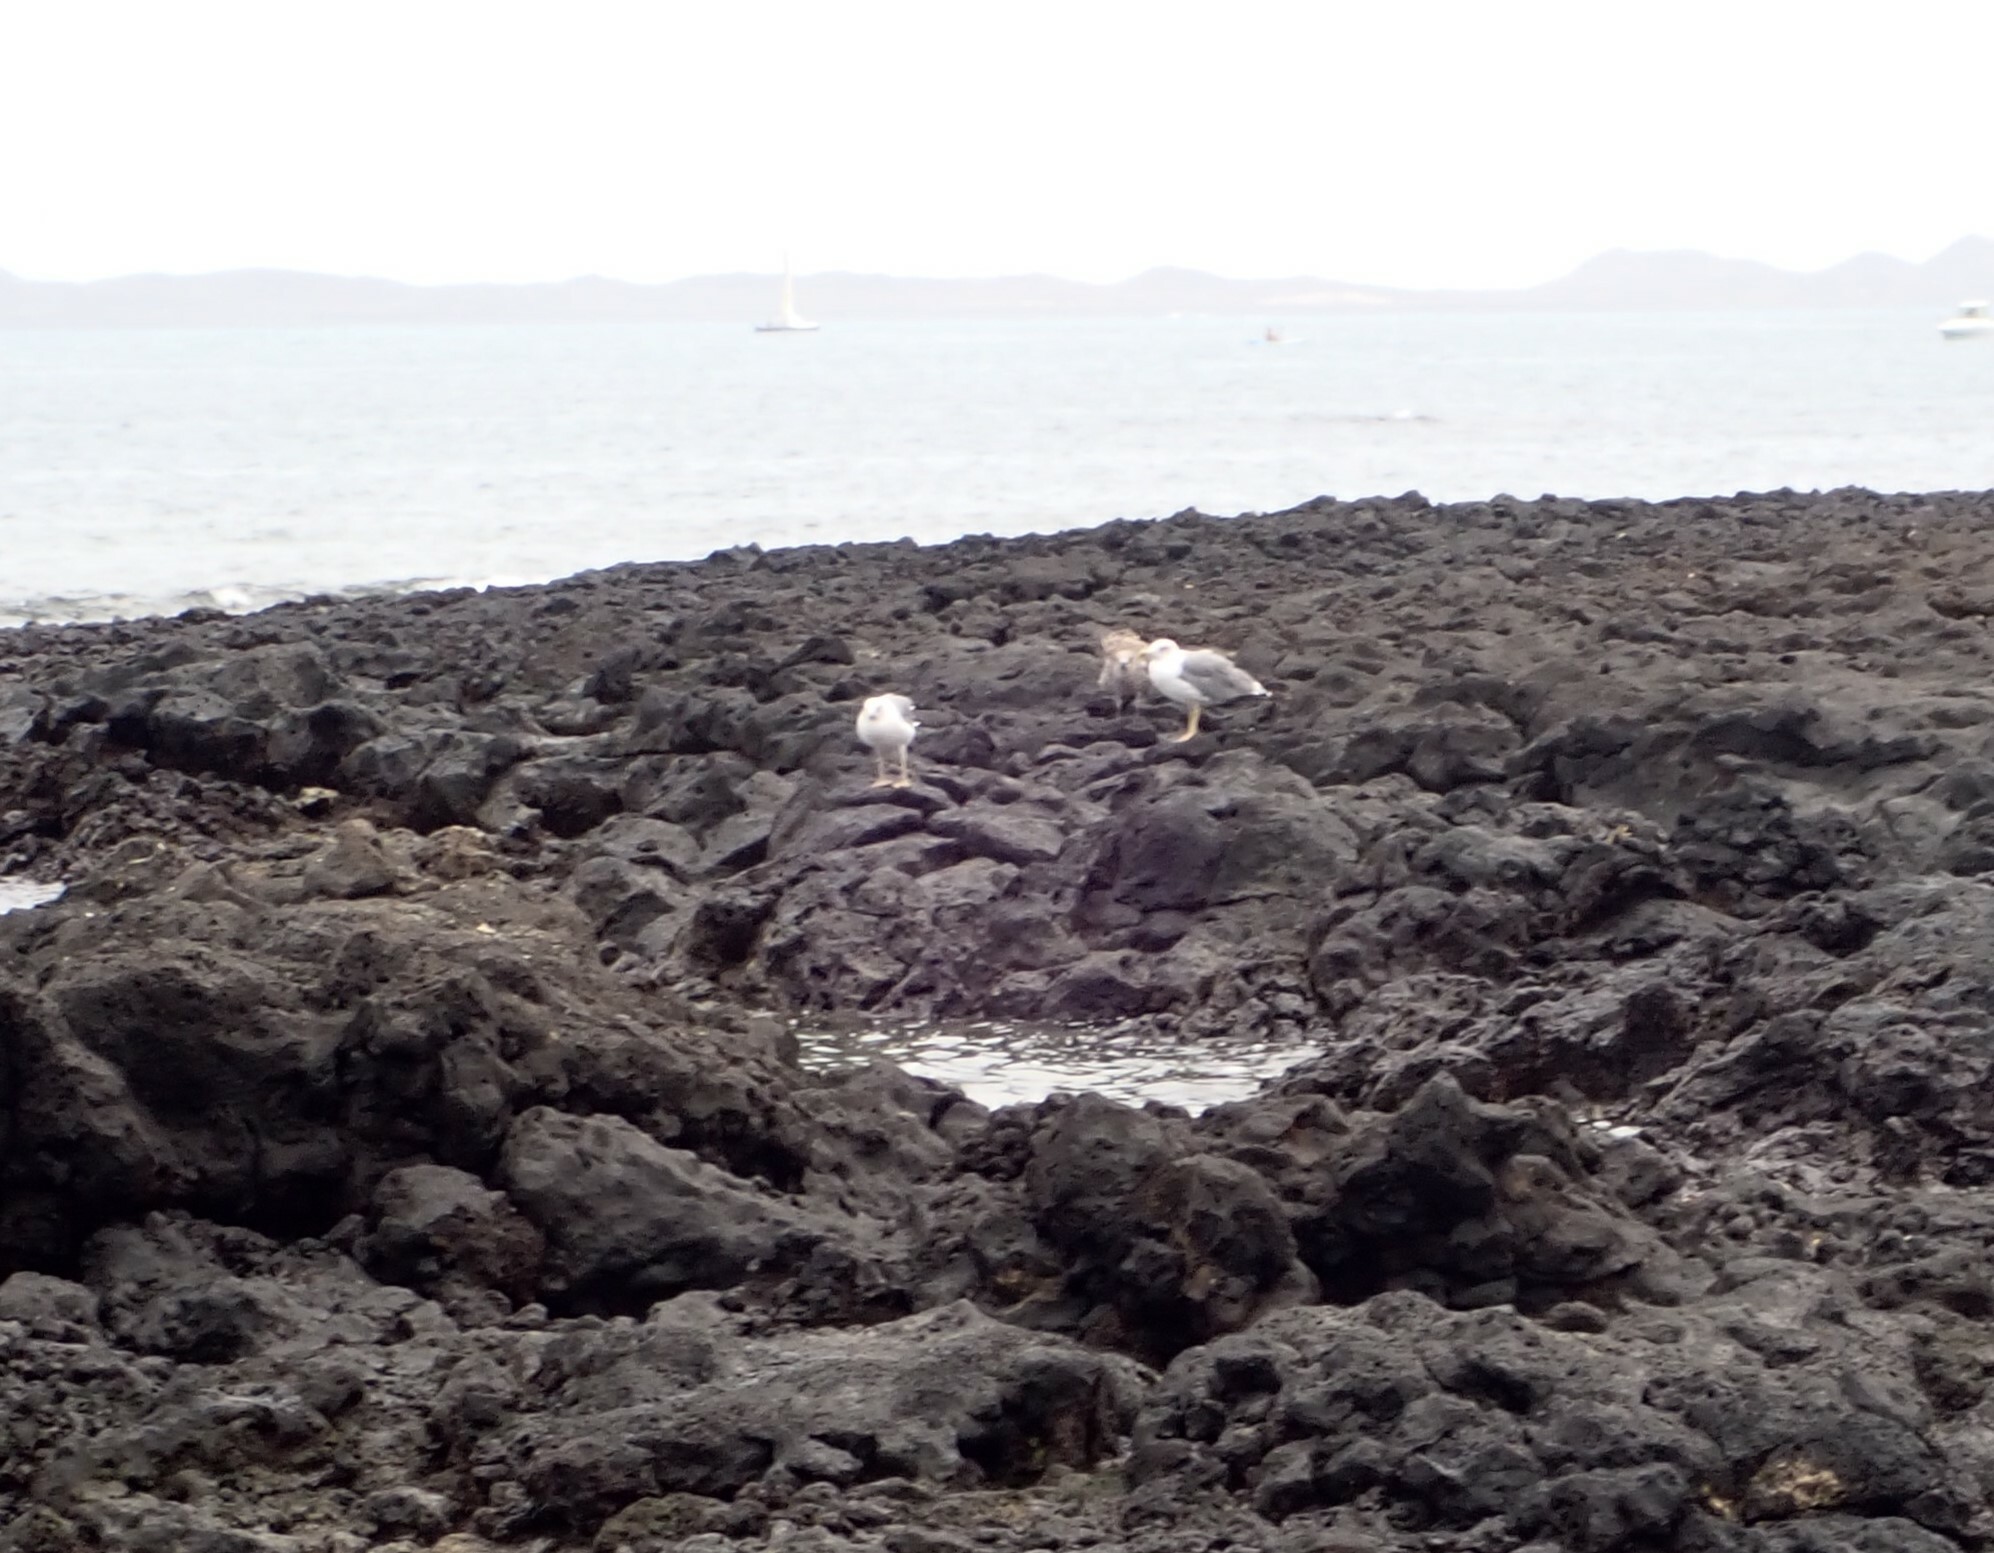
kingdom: Animalia
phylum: Chordata
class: Aves
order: Charadriiformes
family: Laridae
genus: Larus
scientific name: Larus michahellis
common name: Yellow-legged gull
